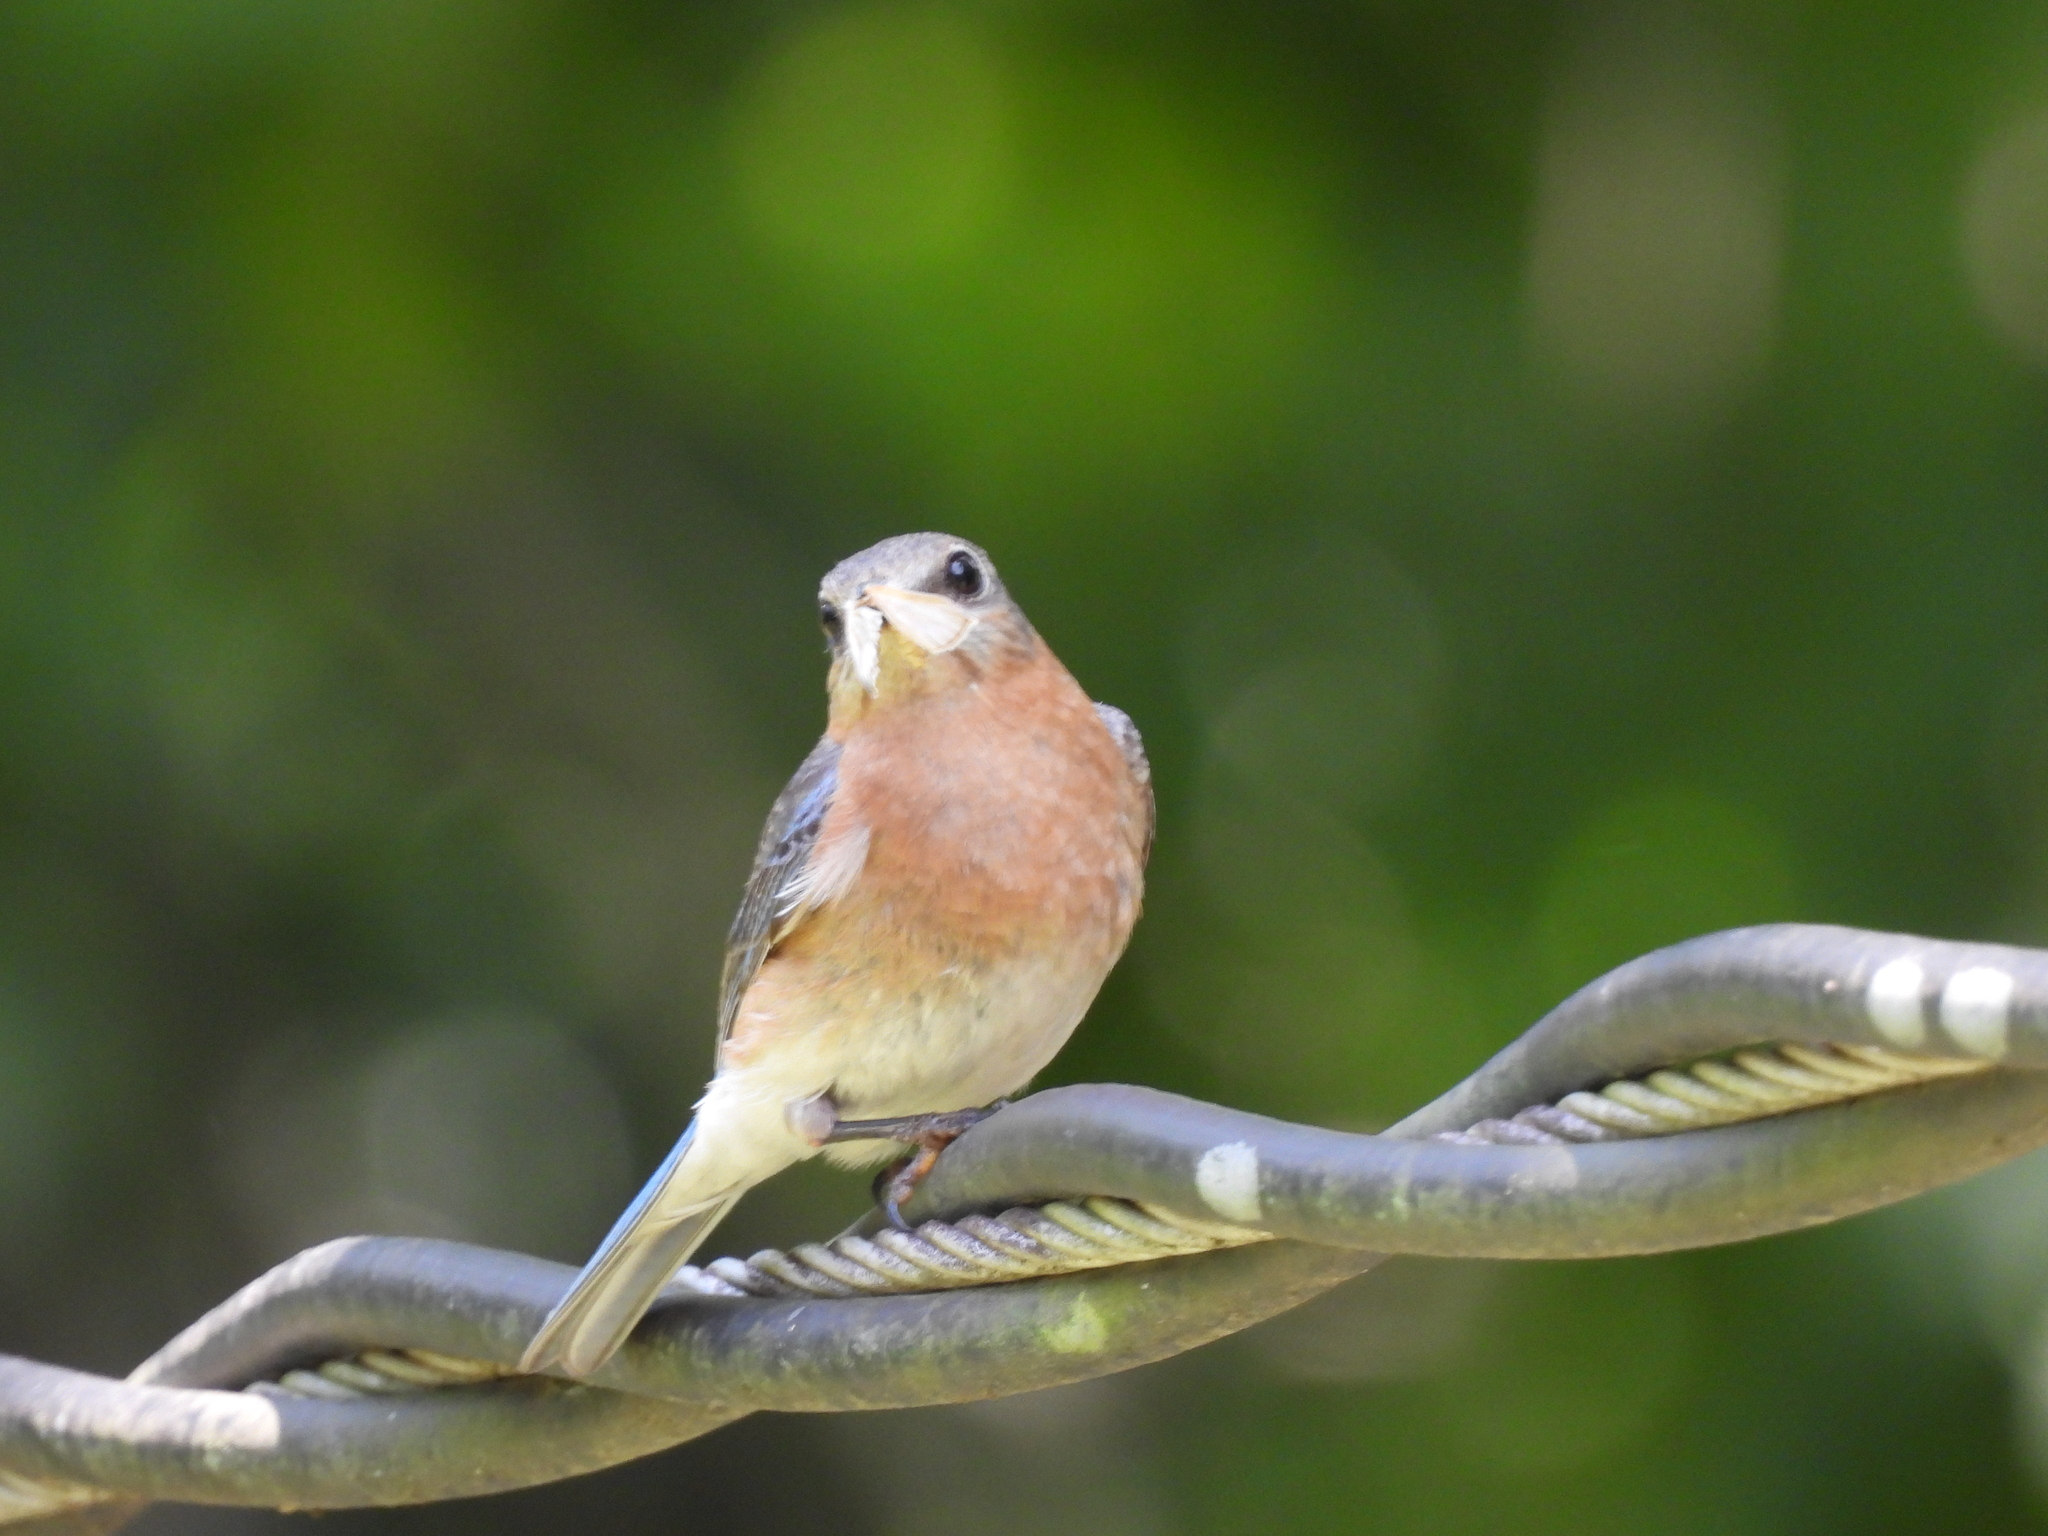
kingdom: Animalia
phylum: Chordata
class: Aves
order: Passeriformes
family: Turdidae
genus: Sialia
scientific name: Sialia sialis
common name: Eastern bluebird
